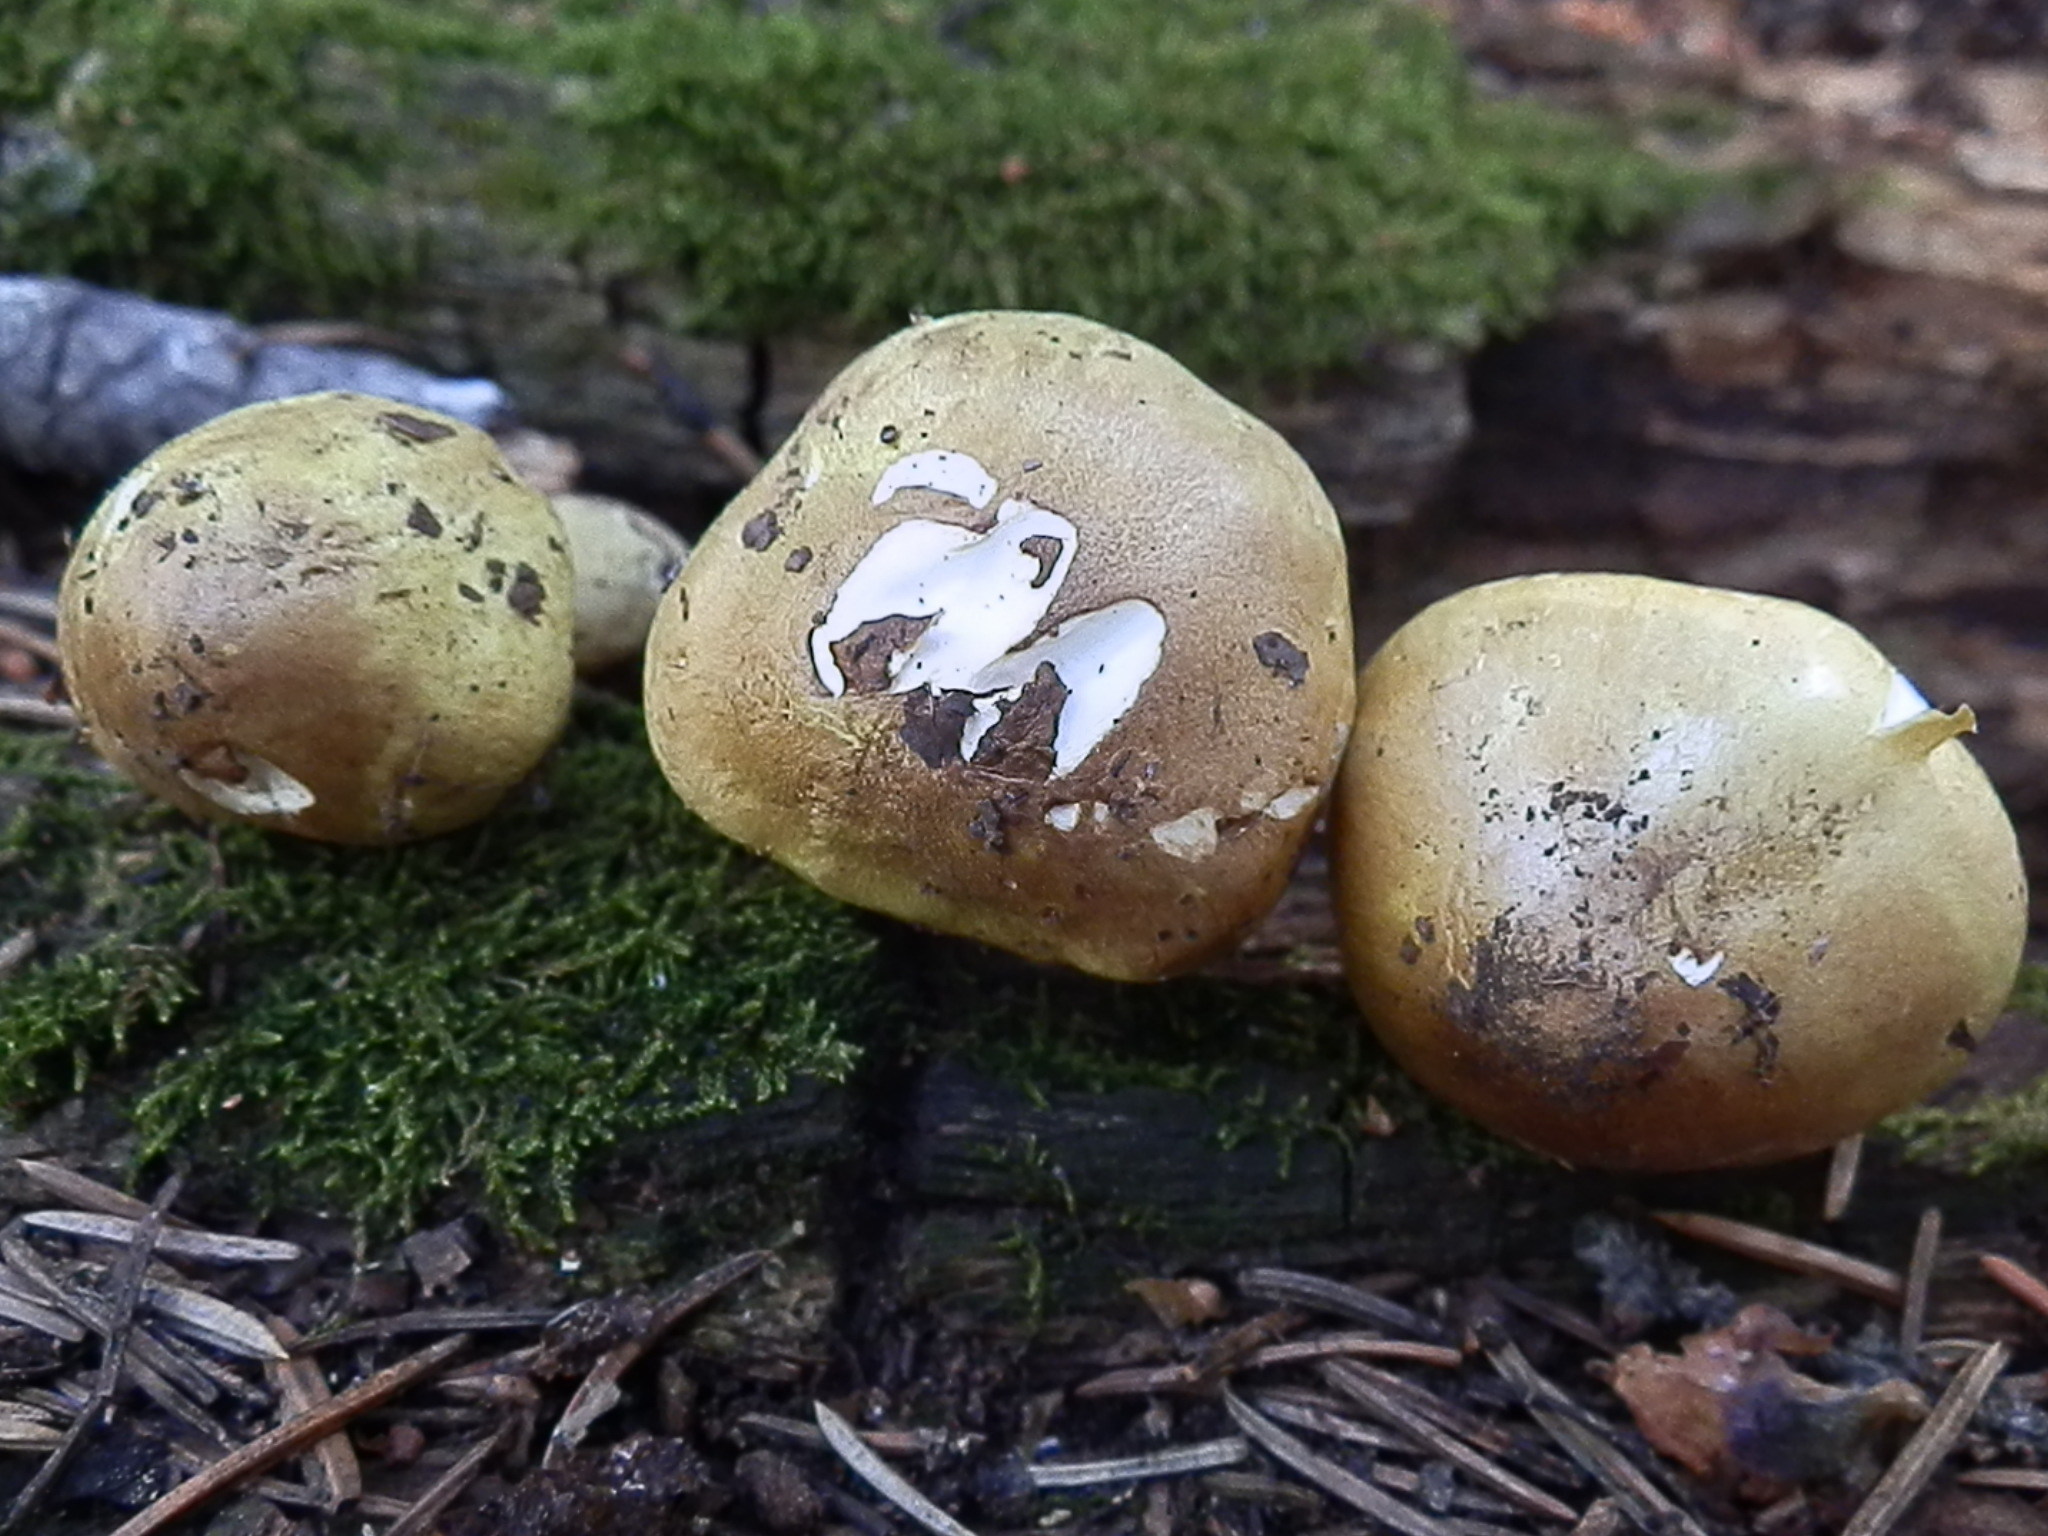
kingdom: Fungi
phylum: Basidiomycota
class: Agaricomycetes
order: Agaricales
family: Tricholomataceae
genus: Tricholoma
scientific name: Tricholoma intermedium
